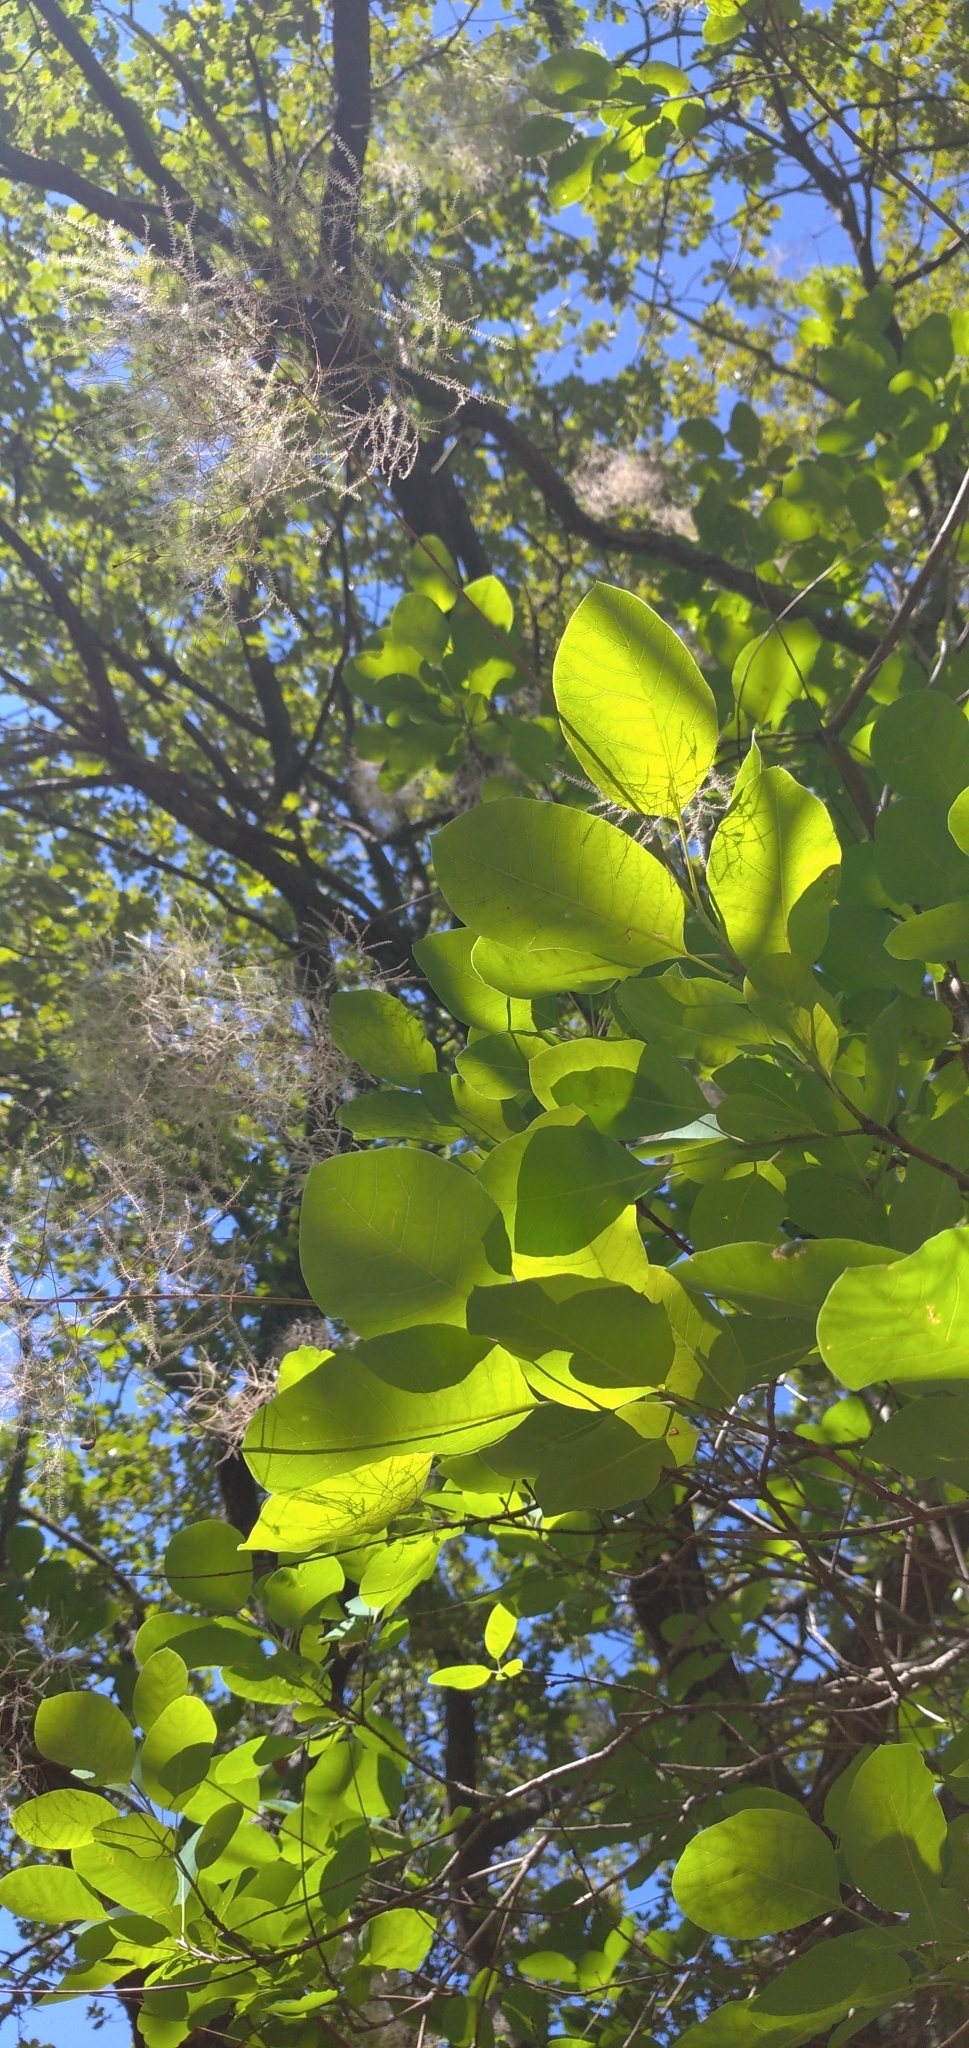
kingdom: Plantae
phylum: Tracheophyta
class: Magnoliopsida
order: Sapindales
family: Anacardiaceae
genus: Cotinus
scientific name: Cotinus coggygria
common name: Smoke-tree
